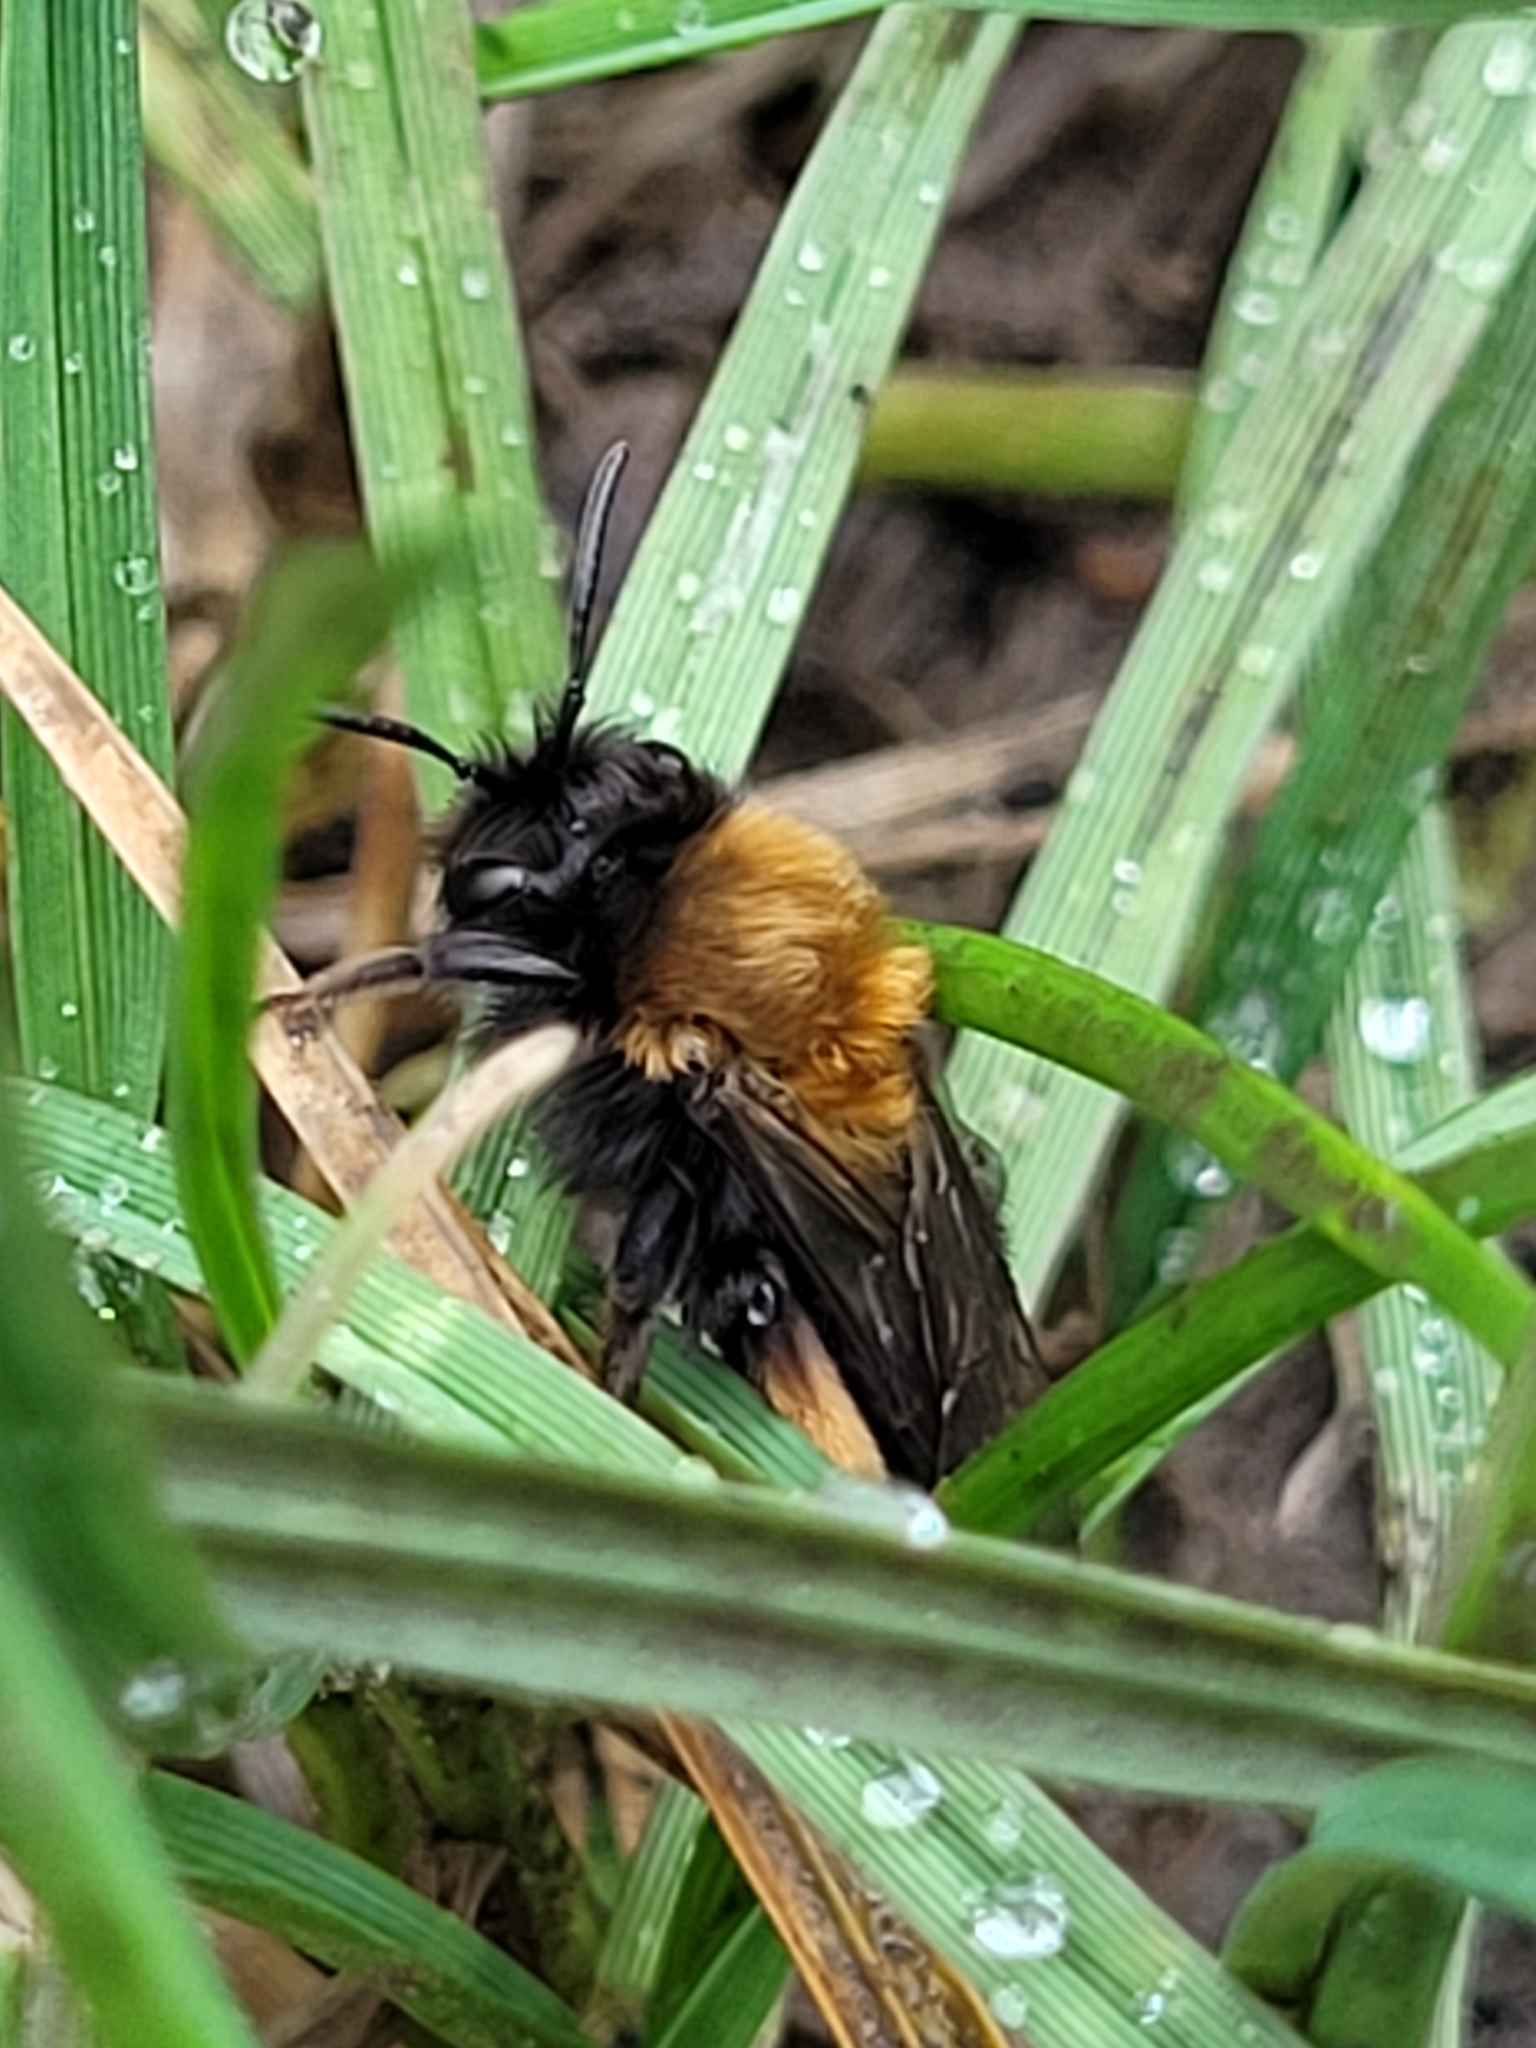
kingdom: Animalia
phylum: Arthropoda
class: Insecta
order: Hymenoptera
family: Andrenidae
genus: Andrena
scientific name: Andrena clarkella
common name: Clarke's mining bee
